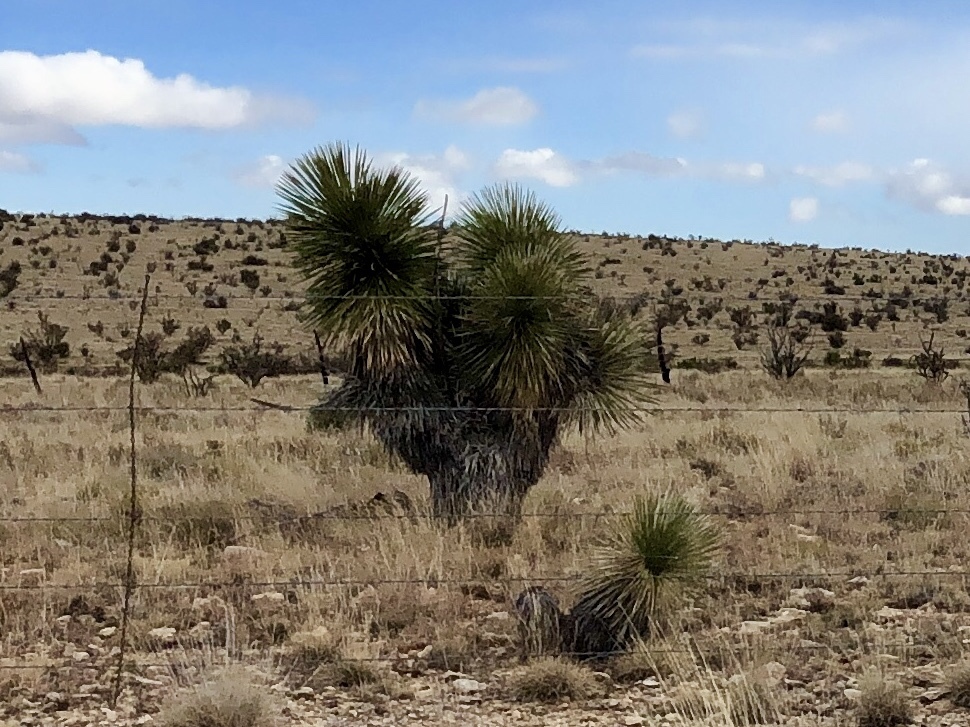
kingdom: Plantae
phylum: Tracheophyta
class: Liliopsida
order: Asparagales
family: Asparagaceae
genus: Yucca
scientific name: Yucca elata
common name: Palmella
